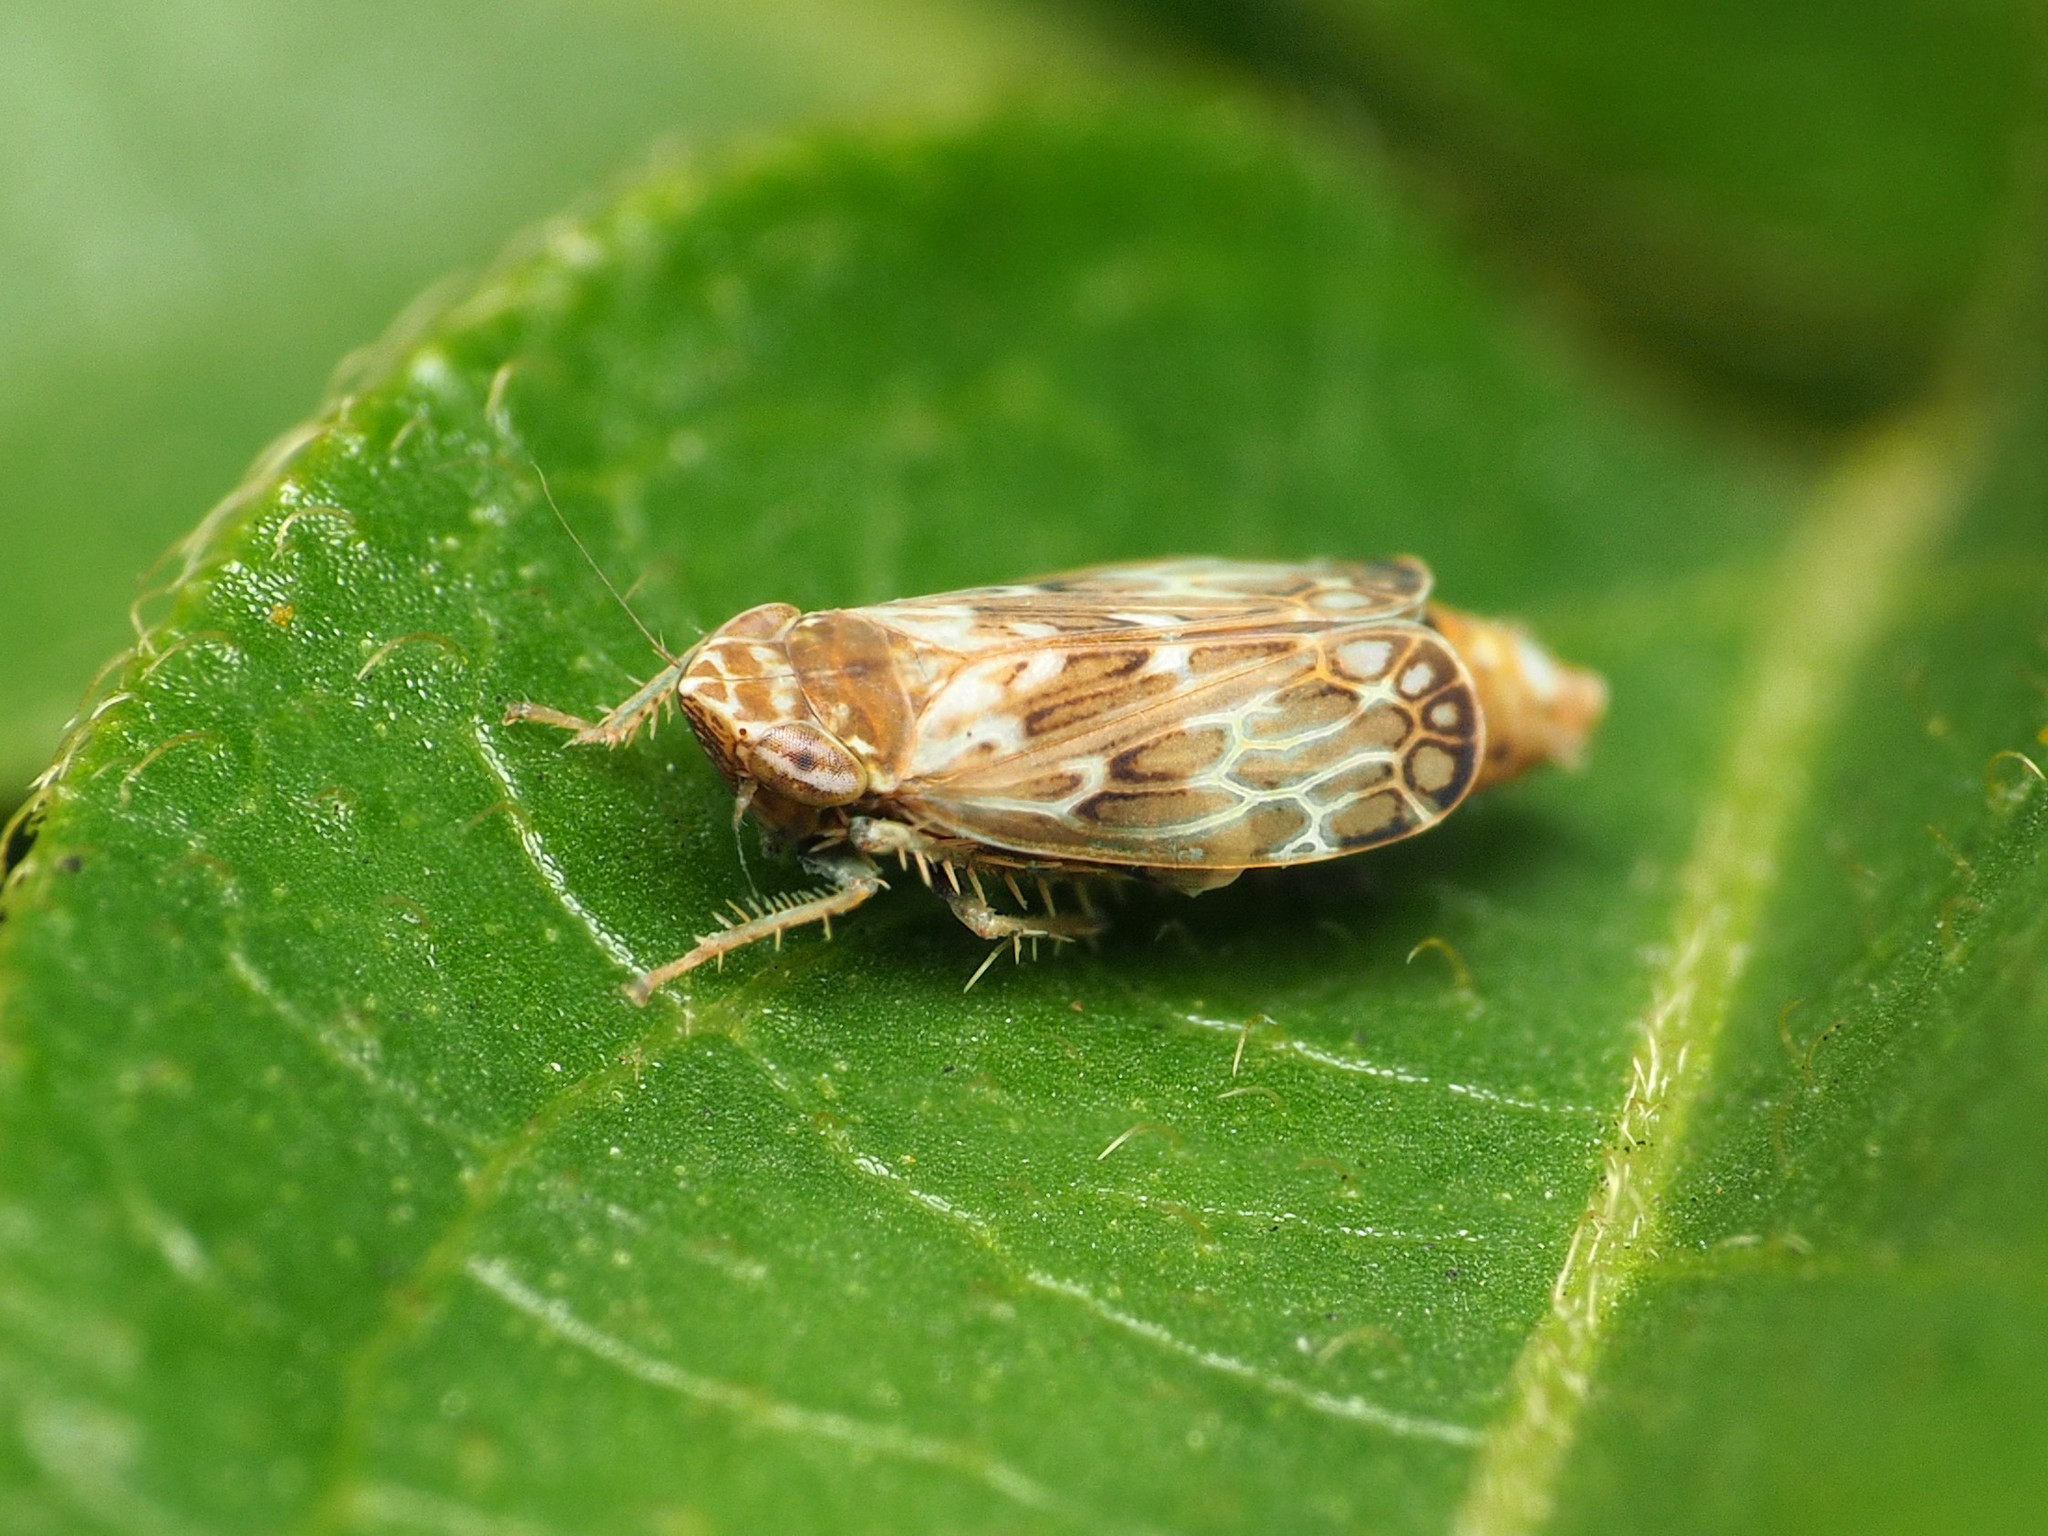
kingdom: Animalia
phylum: Arthropoda
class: Insecta
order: Hemiptera
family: Cicadellidae
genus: Latalus
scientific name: Latalus sayii
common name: Say’s leafhopper
